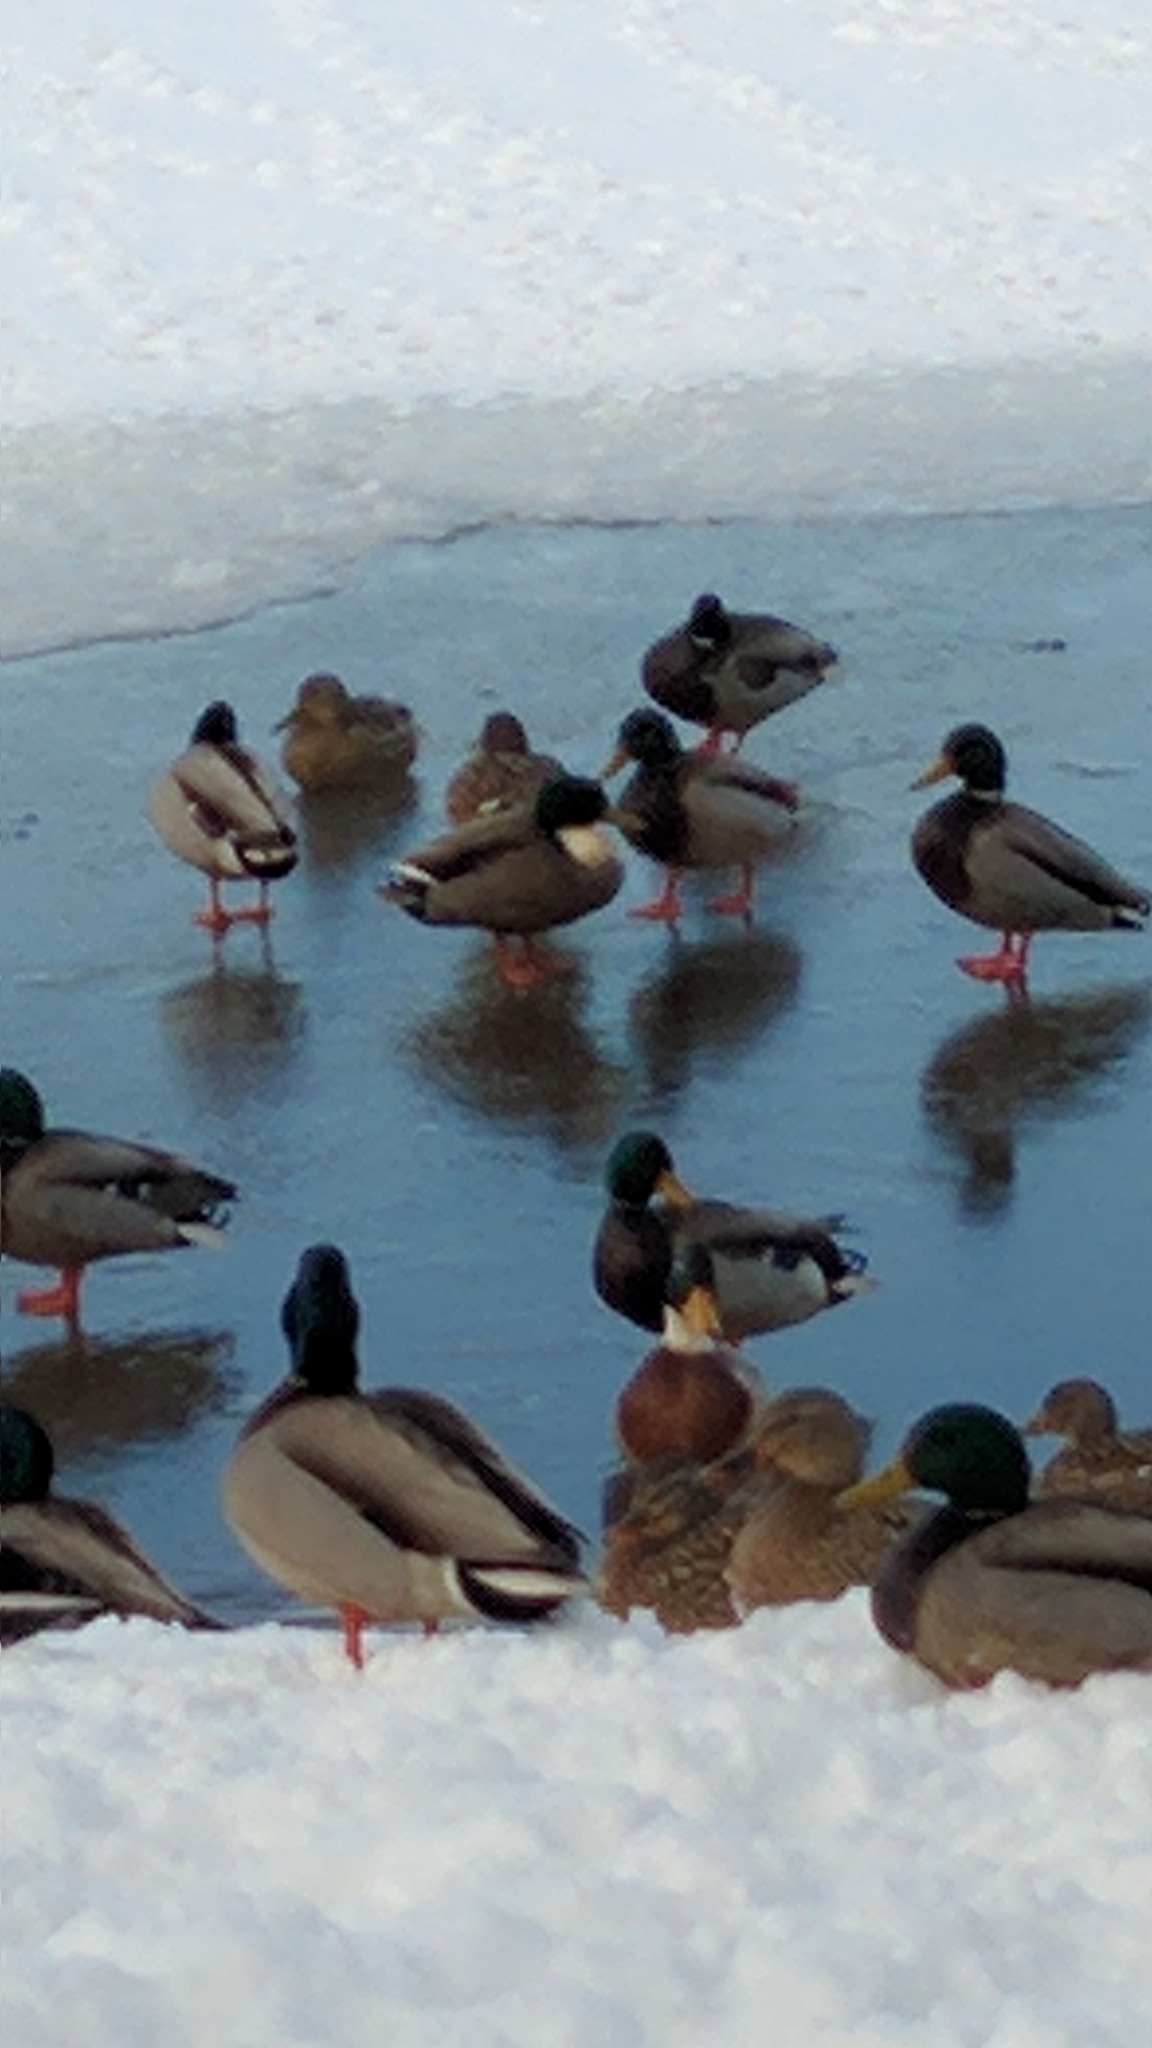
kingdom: Animalia
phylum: Chordata
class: Aves
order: Anseriformes
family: Anatidae
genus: Anas
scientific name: Anas platyrhynchos
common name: Mallard
